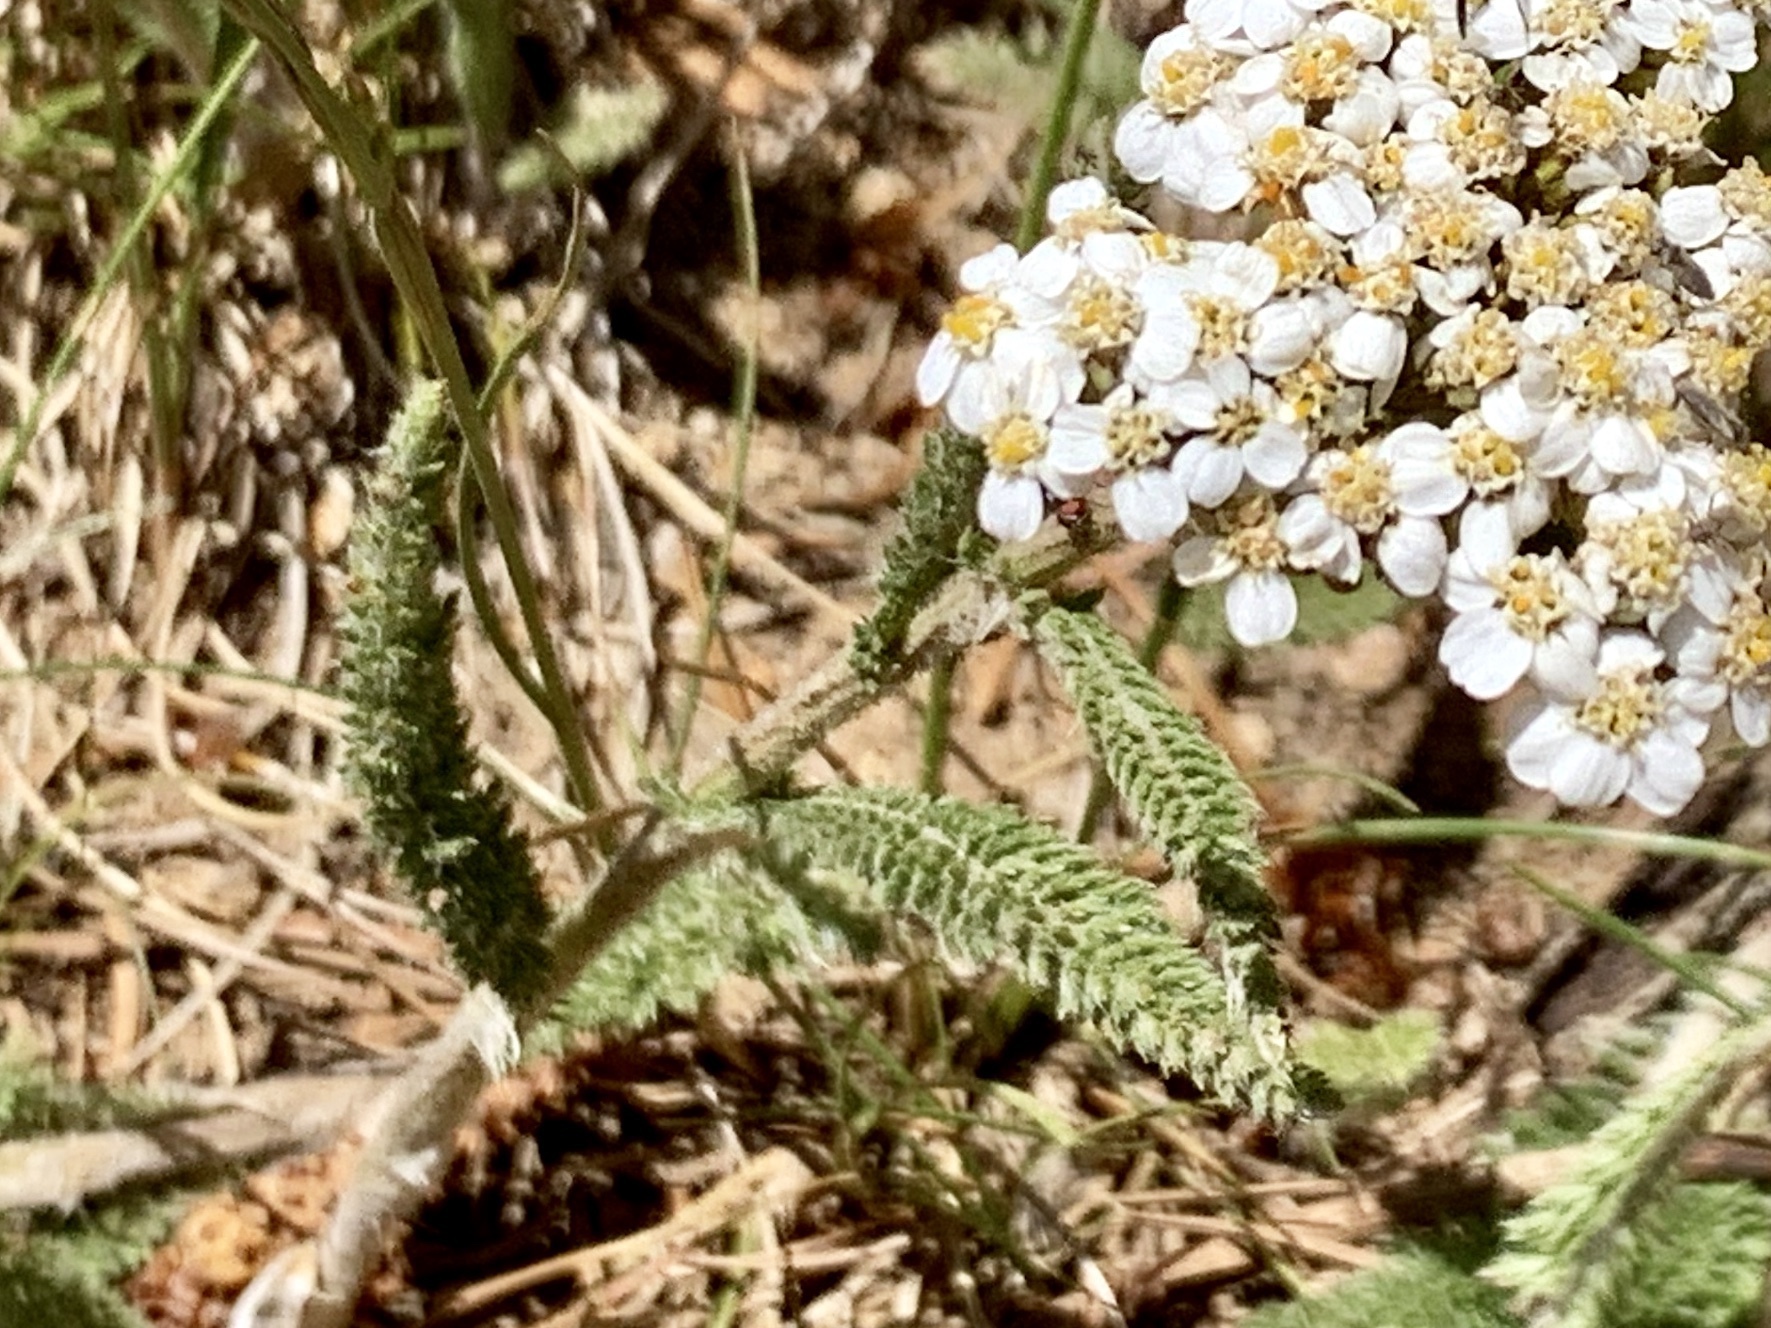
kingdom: Plantae
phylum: Tracheophyta
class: Magnoliopsida
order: Asterales
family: Asteraceae
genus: Achillea
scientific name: Achillea millefolium
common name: Yarrow
